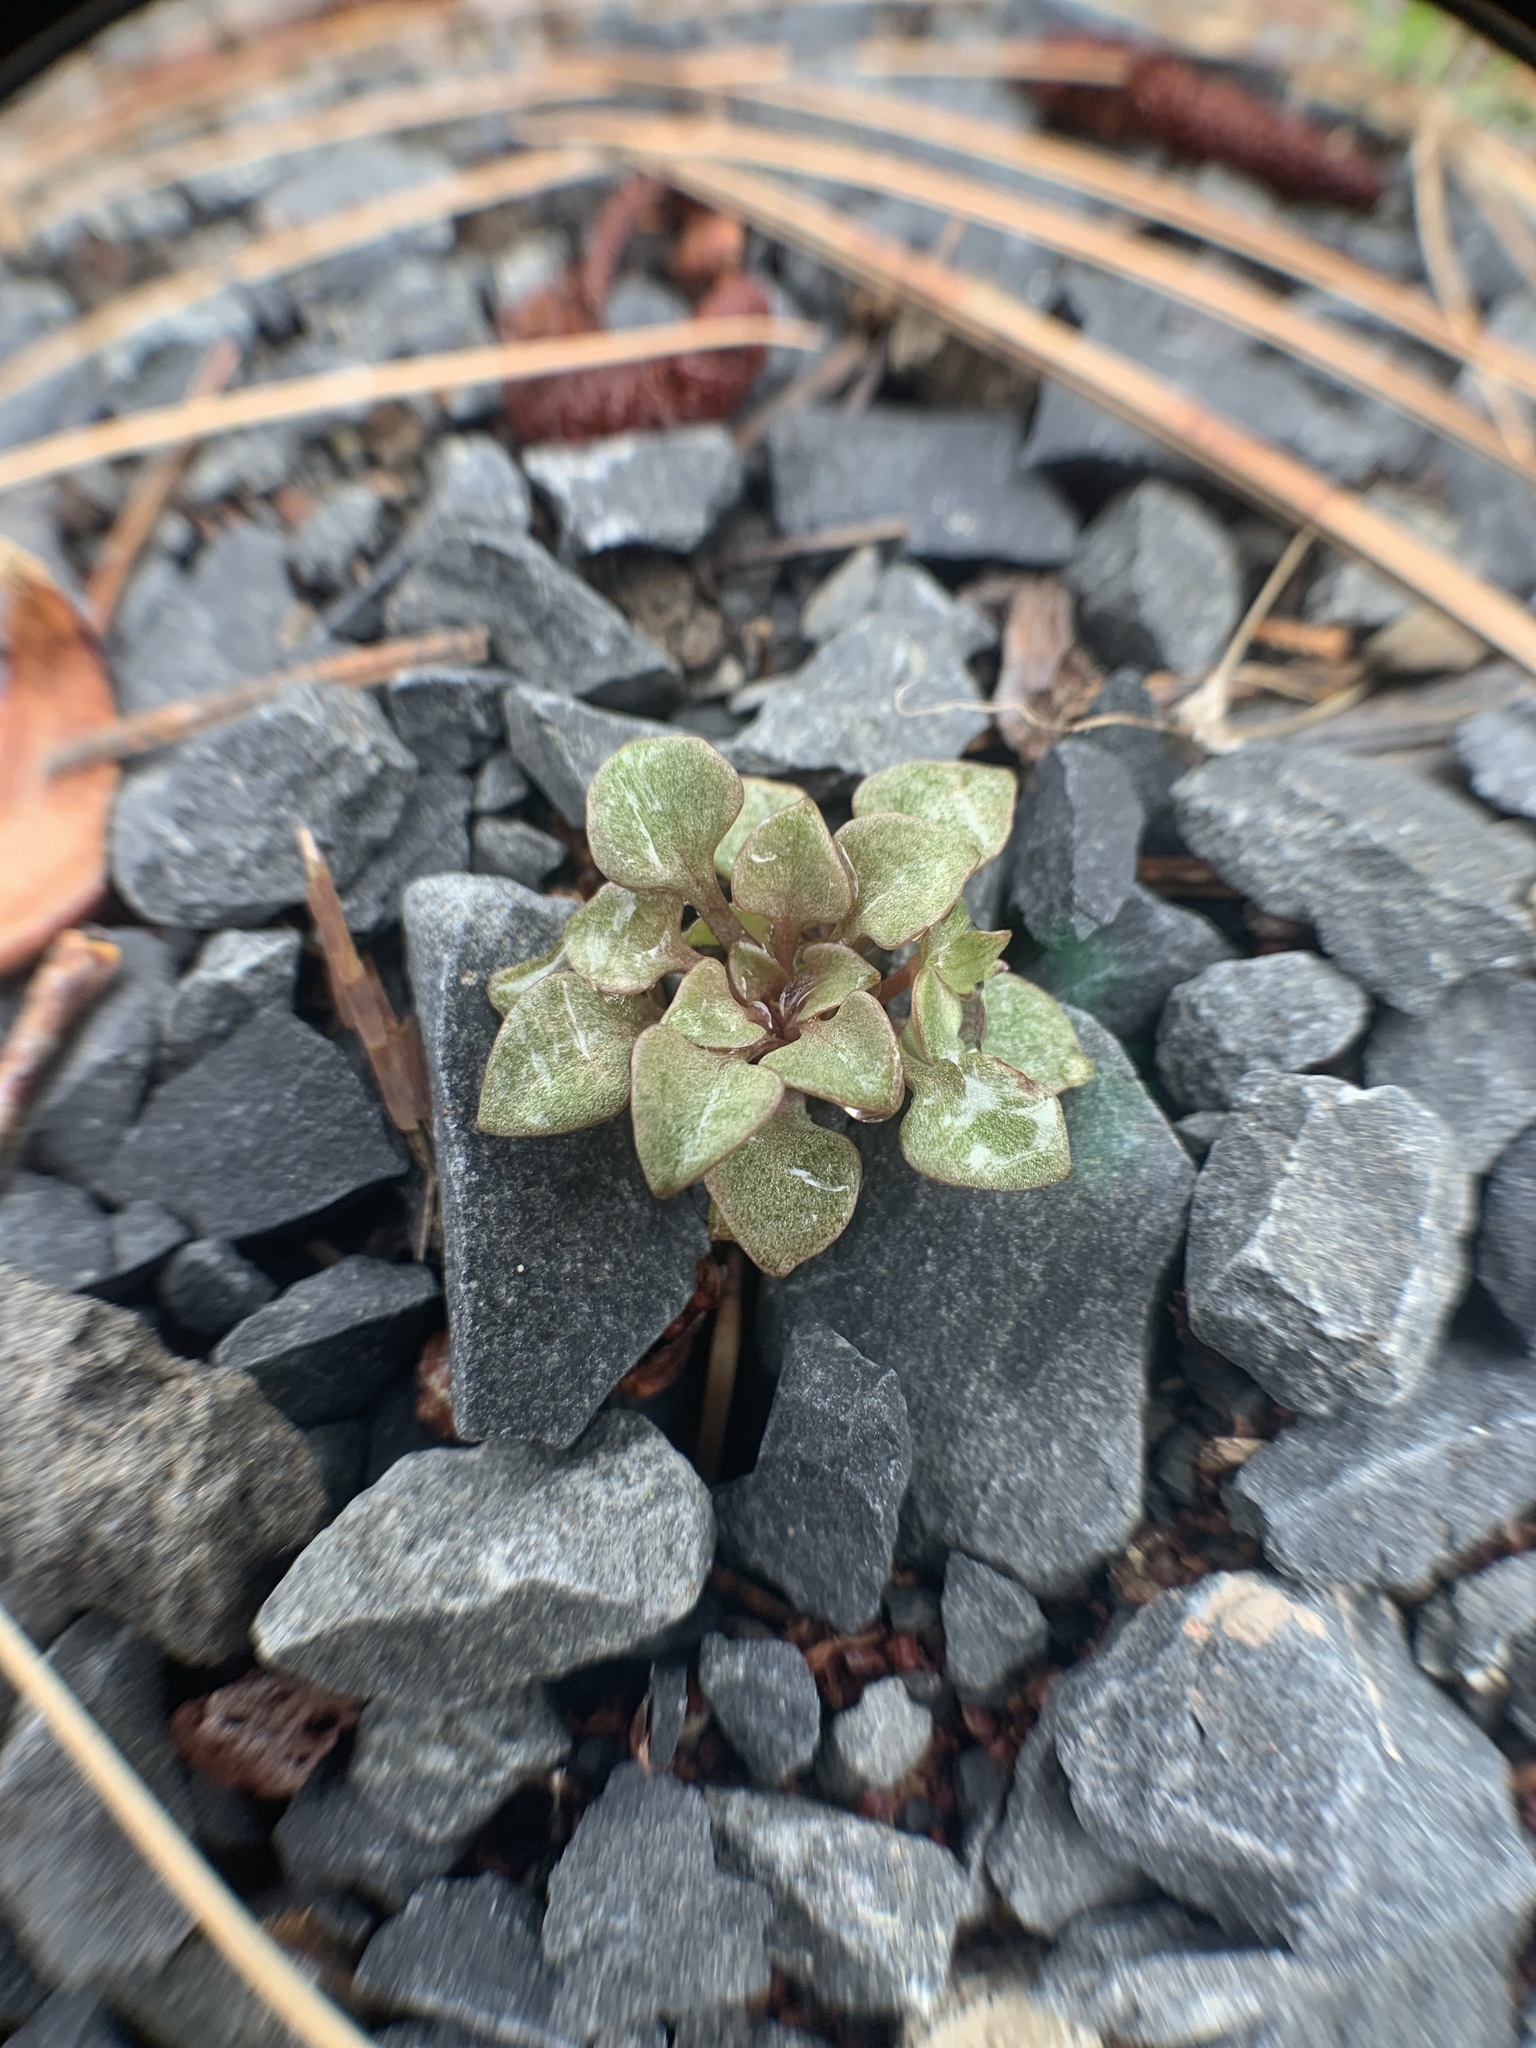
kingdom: Plantae
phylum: Tracheophyta
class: Magnoliopsida
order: Caryophyllales
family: Montiaceae
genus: Claytonia
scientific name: Claytonia rubra
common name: Erubescent miner's-lettuce
